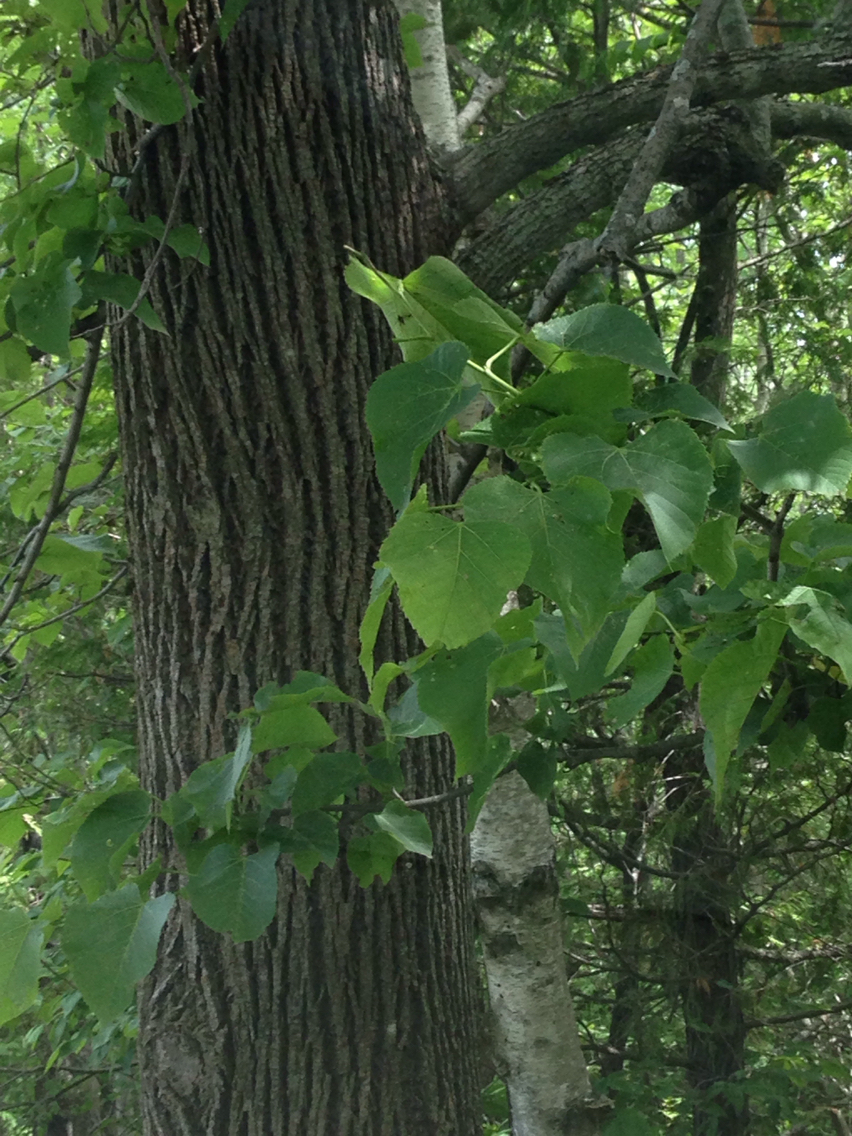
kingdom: Plantae
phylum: Tracheophyta
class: Magnoliopsida
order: Malvales
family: Malvaceae
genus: Tilia
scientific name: Tilia americana
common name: Basswood
